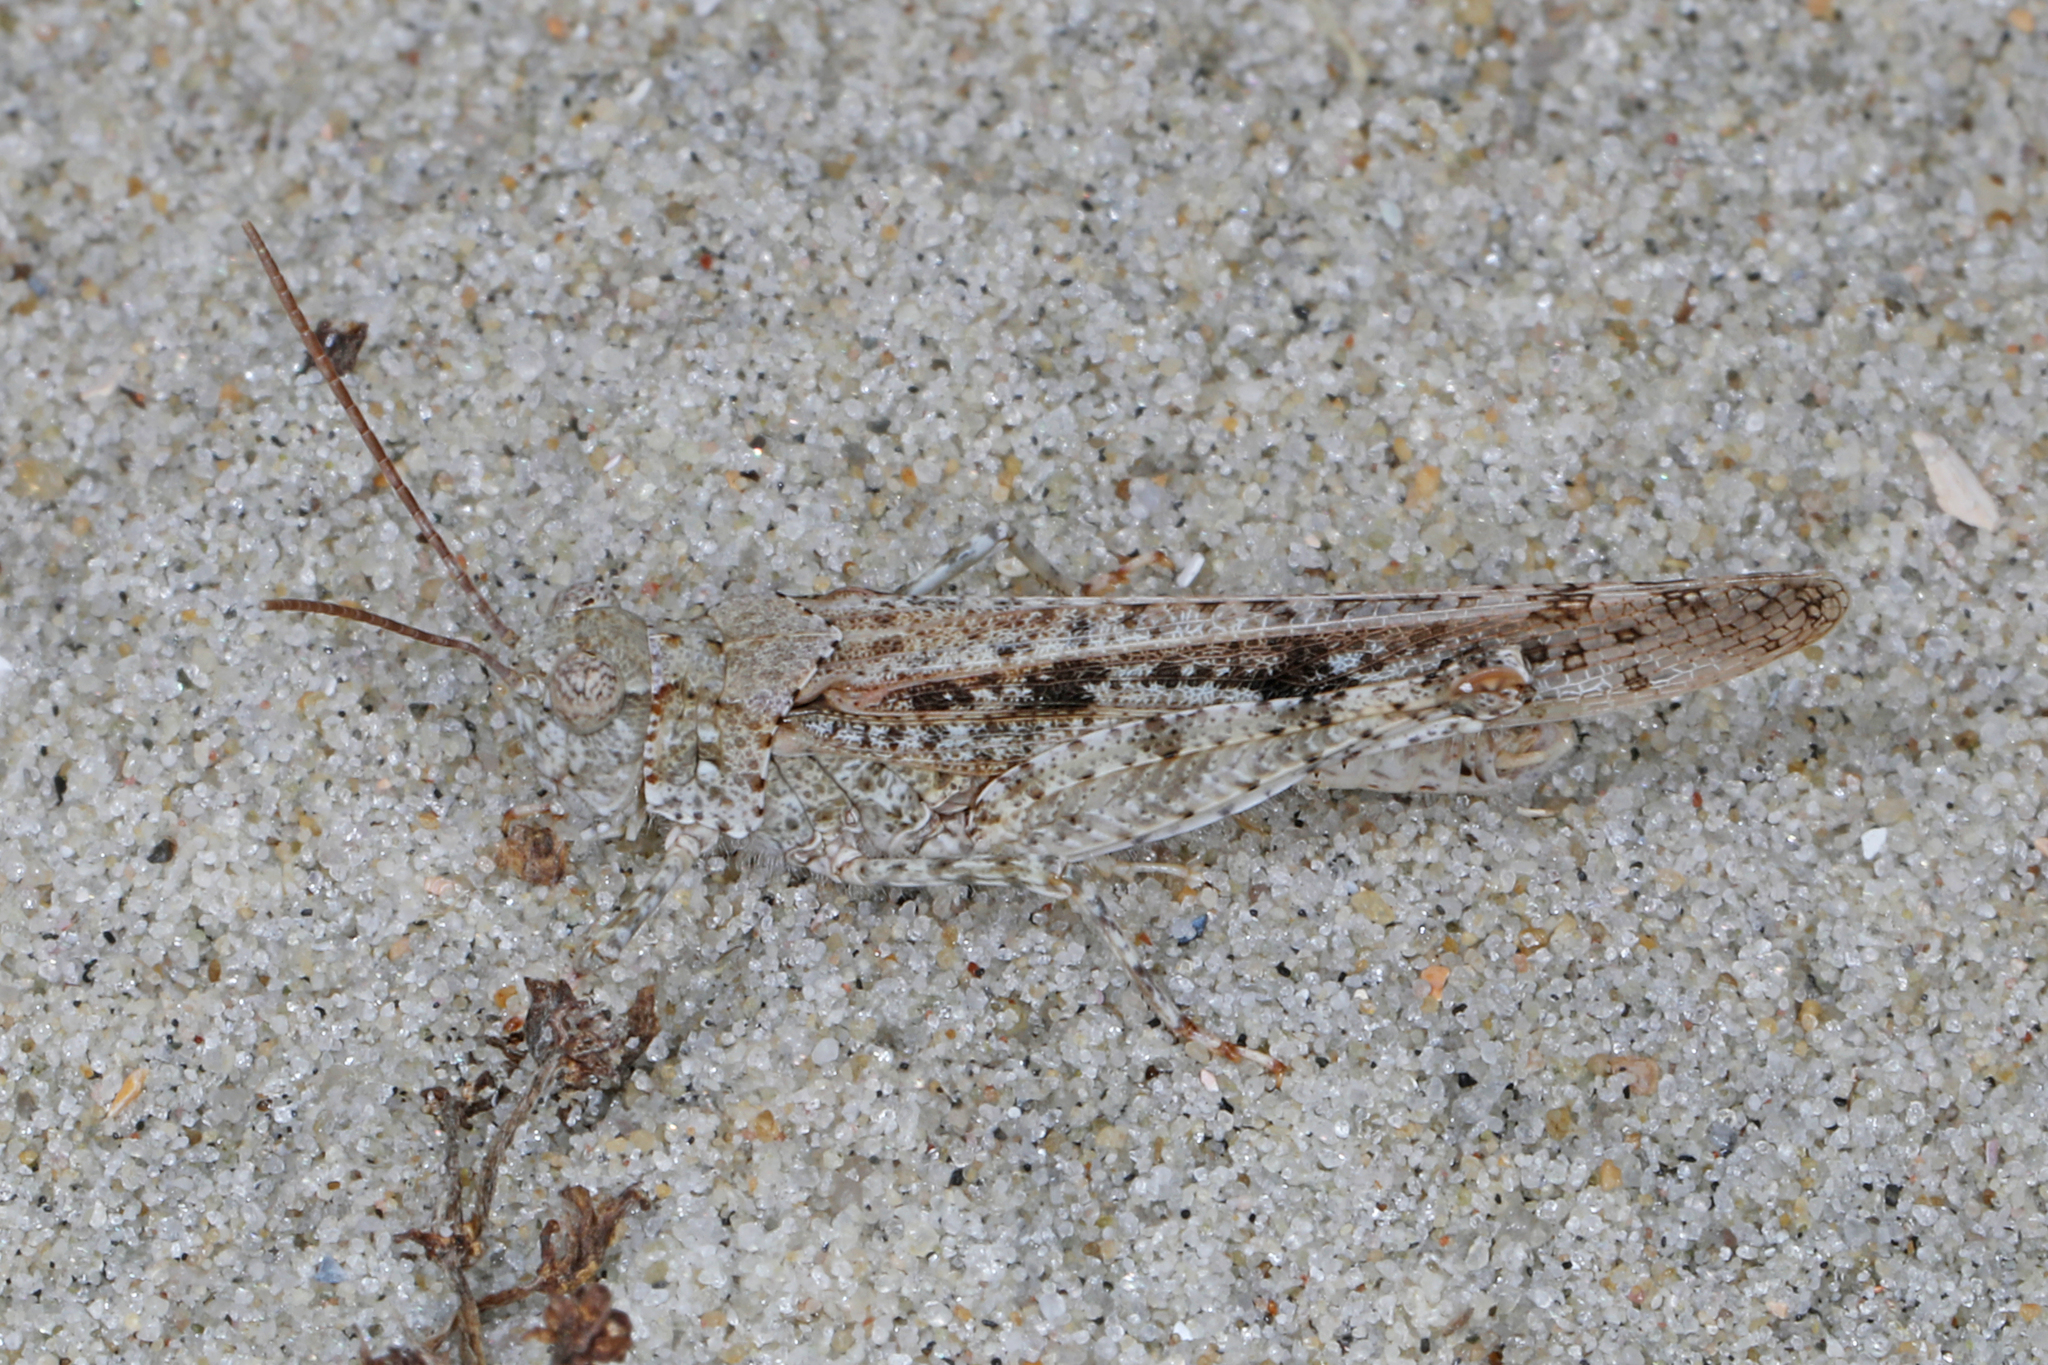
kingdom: Animalia
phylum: Arthropoda
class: Insecta
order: Orthoptera
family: Acrididae
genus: Trimerotropis
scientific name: Trimerotropis maritima
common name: Seaside locust
